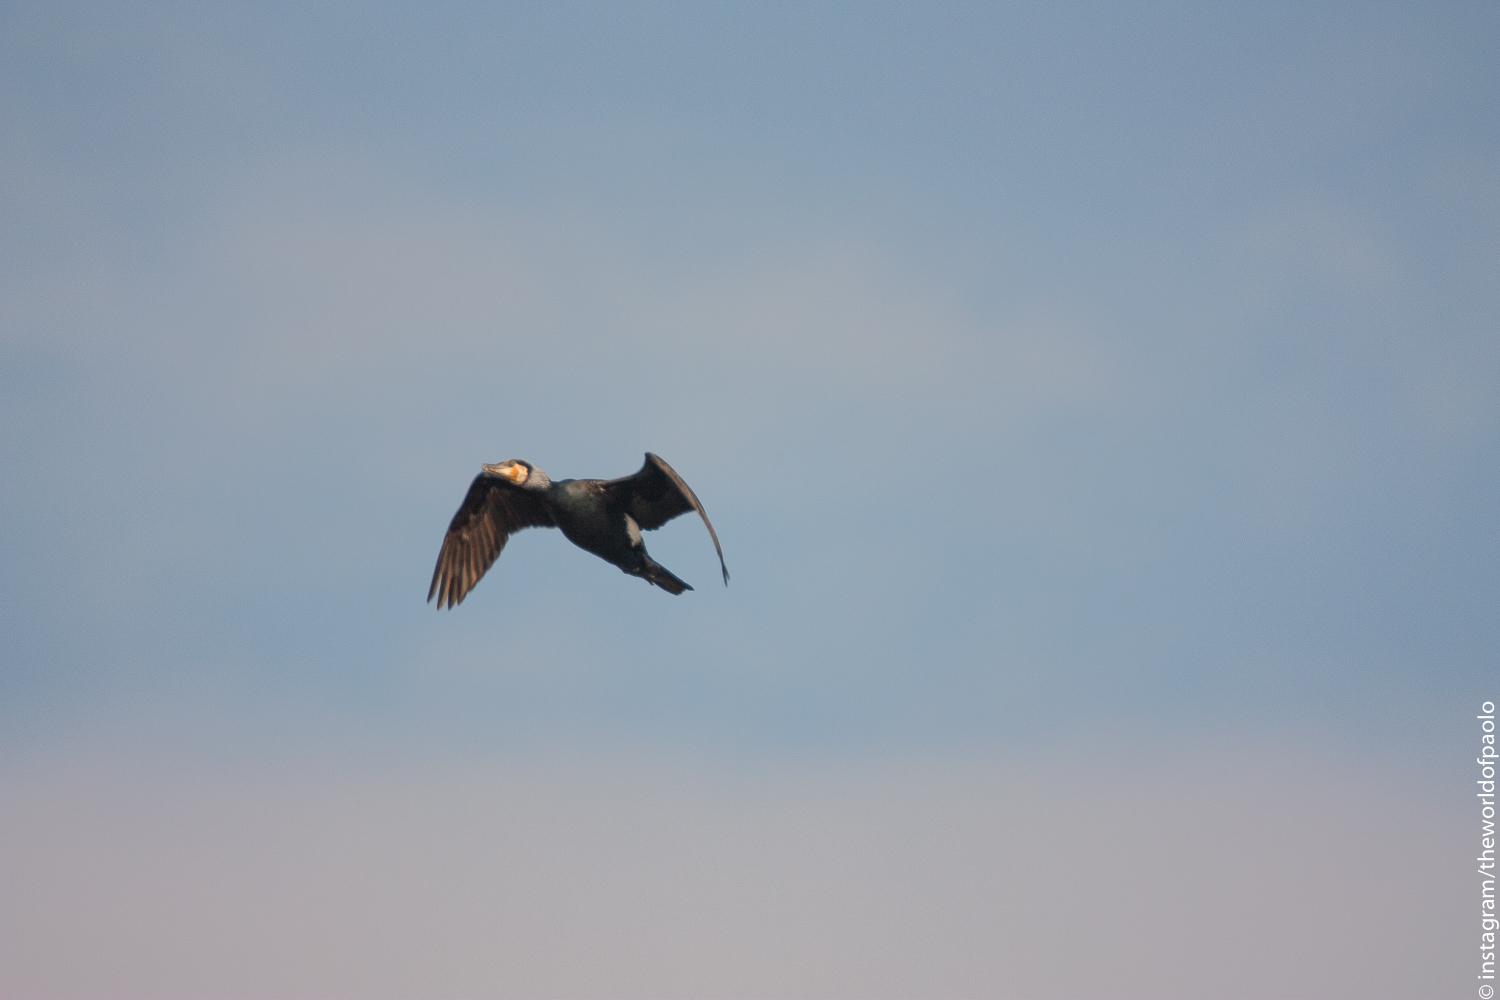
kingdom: Animalia
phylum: Chordata
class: Aves
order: Suliformes
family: Phalacrocoracidae
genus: Phalacrocorax
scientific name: Phalacrocorax carbo
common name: Great cormorant
